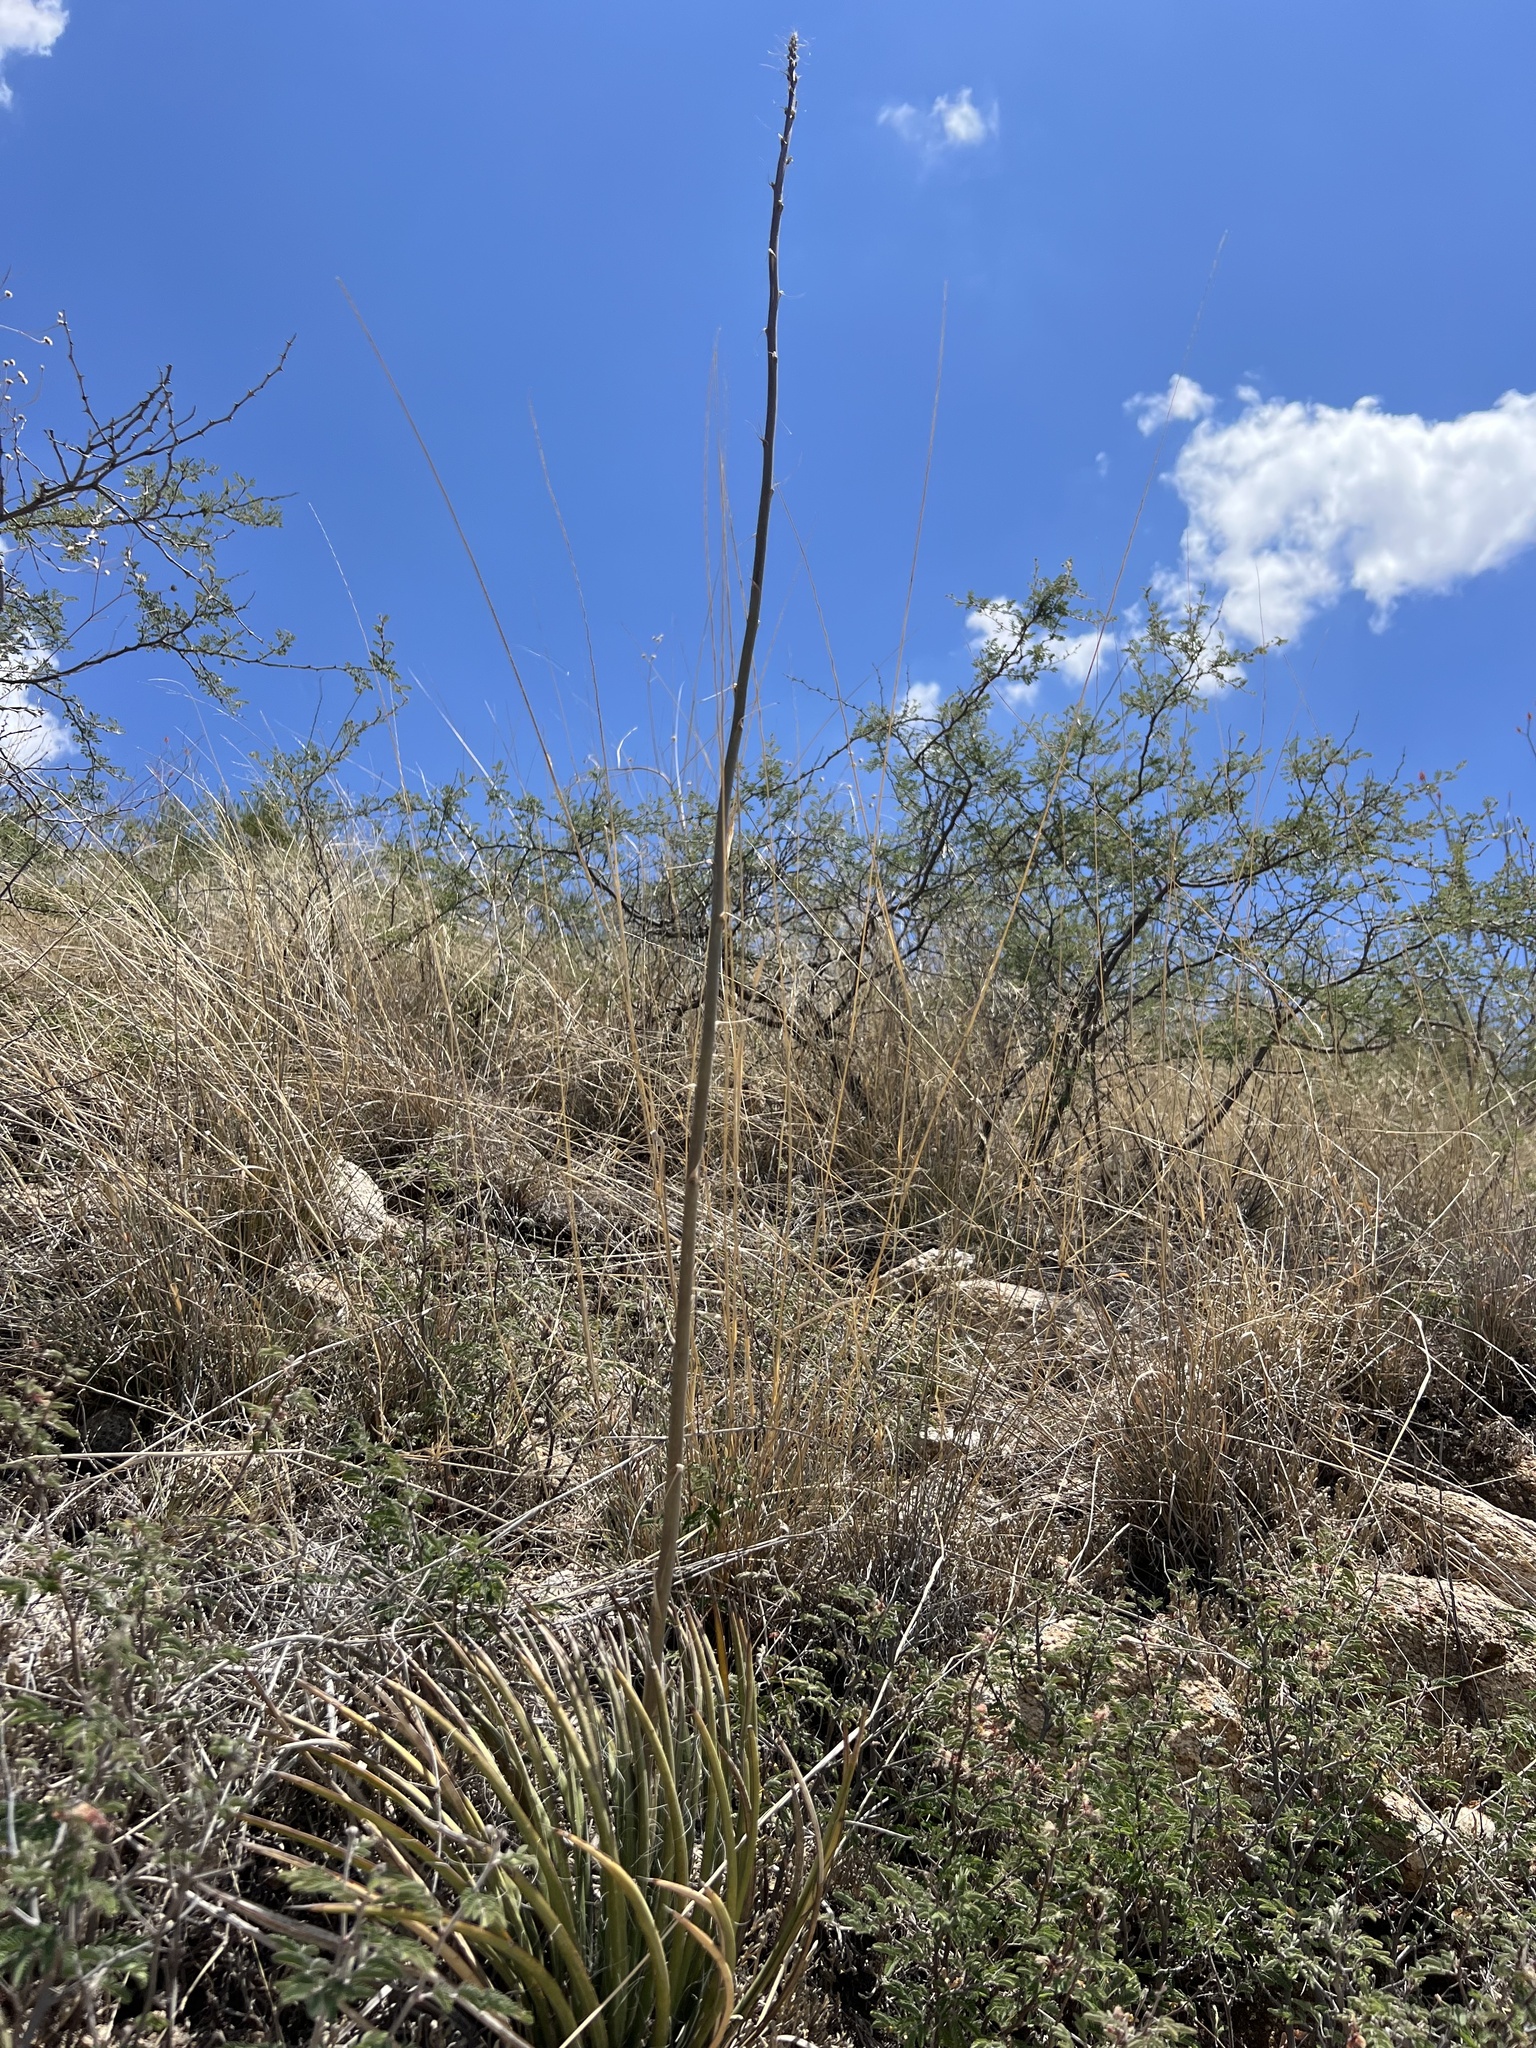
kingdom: Plantae
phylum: Tracheophyta
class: Liliopsida
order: Asparagales
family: Asparagaceae
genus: Agave
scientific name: Agave schottii
